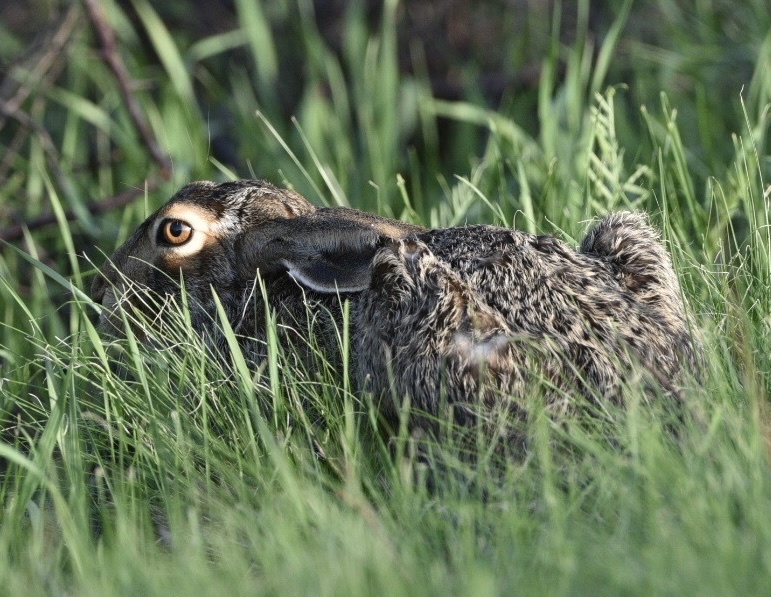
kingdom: Animalia
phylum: Chordata
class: Mammalia
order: Lagomorpha
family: Leporidae
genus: Lepus
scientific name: Lepus europaeus
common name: European hare
